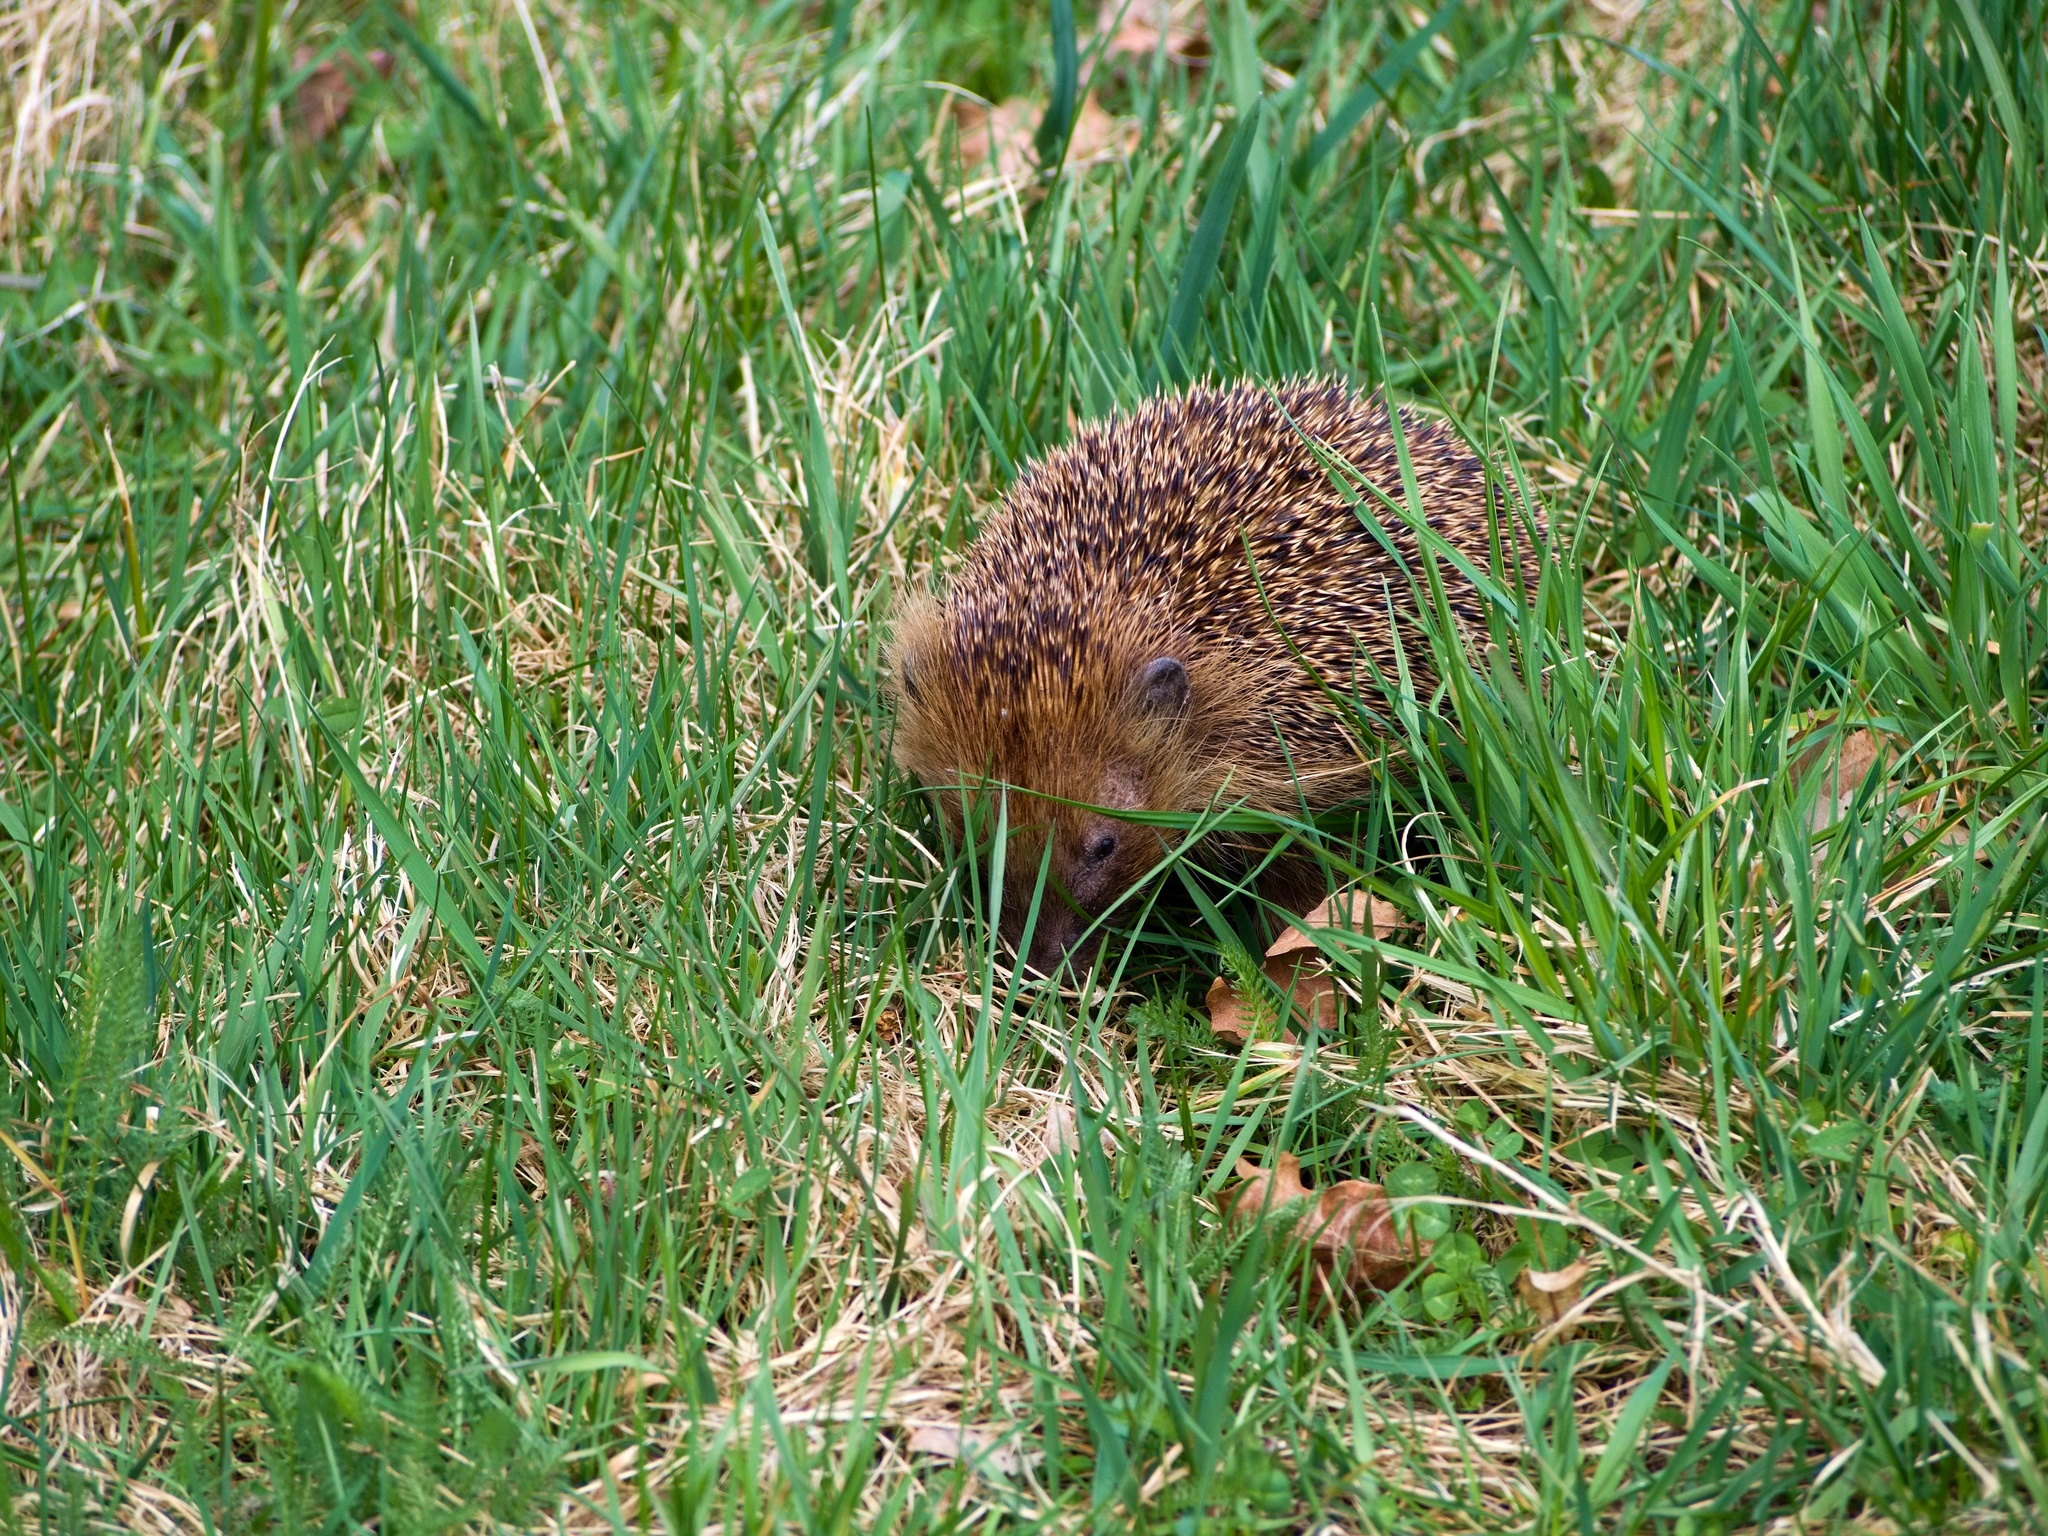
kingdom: Animalia
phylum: Chordata
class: Mammalia
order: Erinaceomorpha
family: Erinaceidae
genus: Erinaceus
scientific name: Erinaceus europaeus
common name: West european hedgehog
